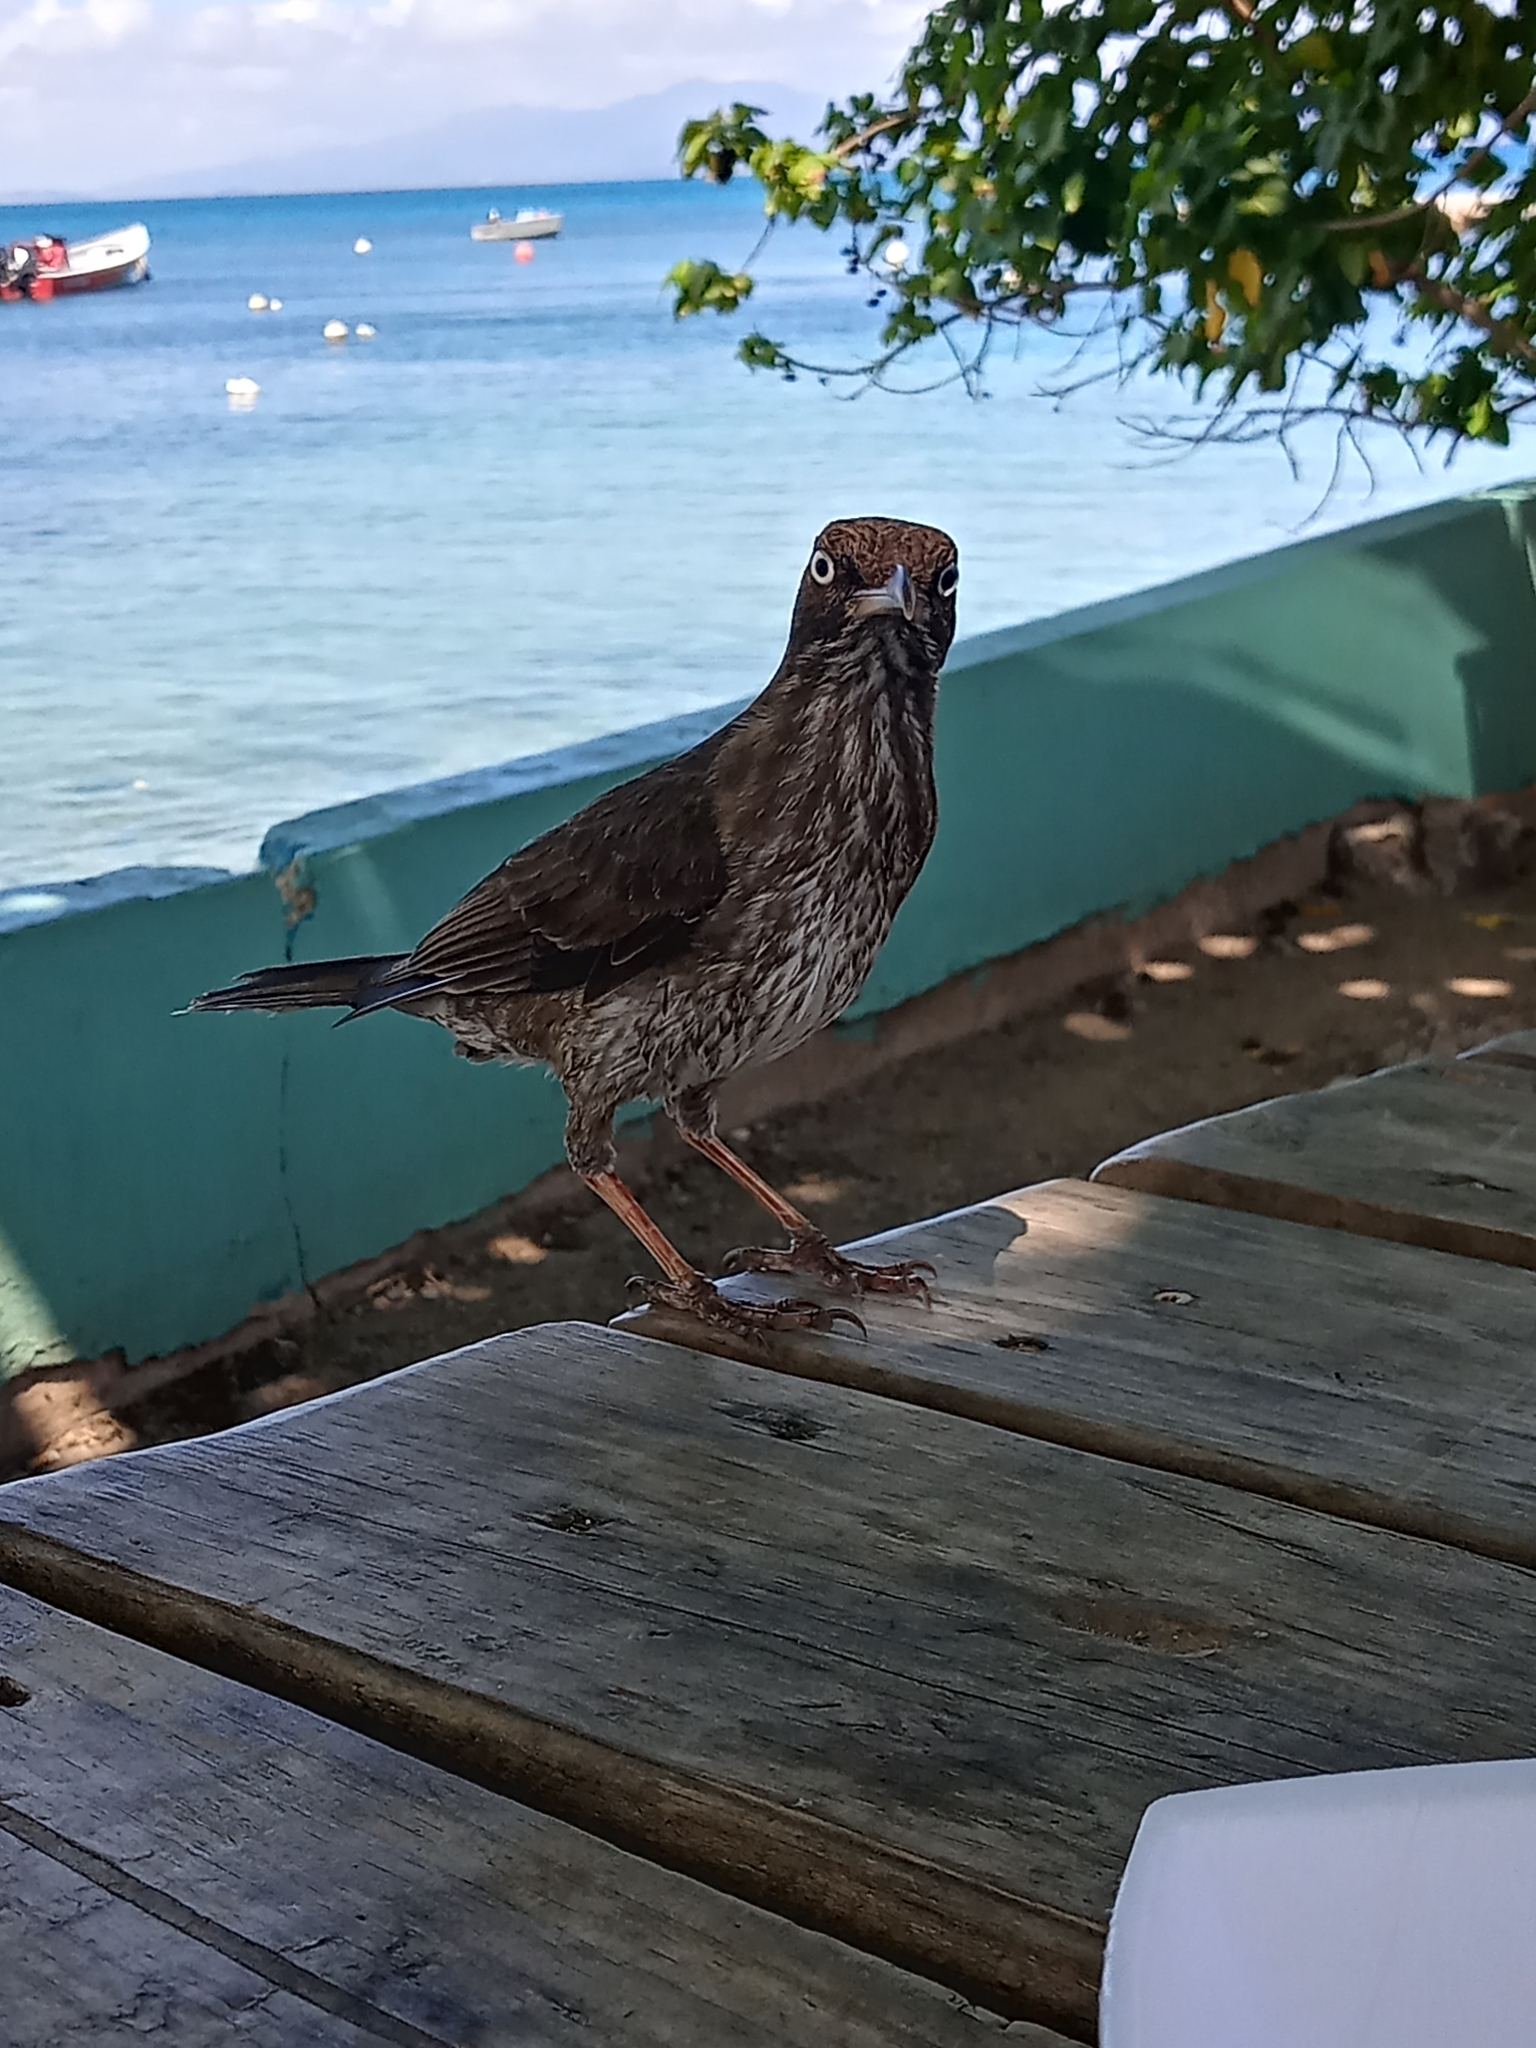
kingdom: Animalia
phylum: Chordata
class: Aves
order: Passeriformes
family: Mimidae
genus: Margarops
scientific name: Margarops fuscatus
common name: Pearly-eyed thrasher
